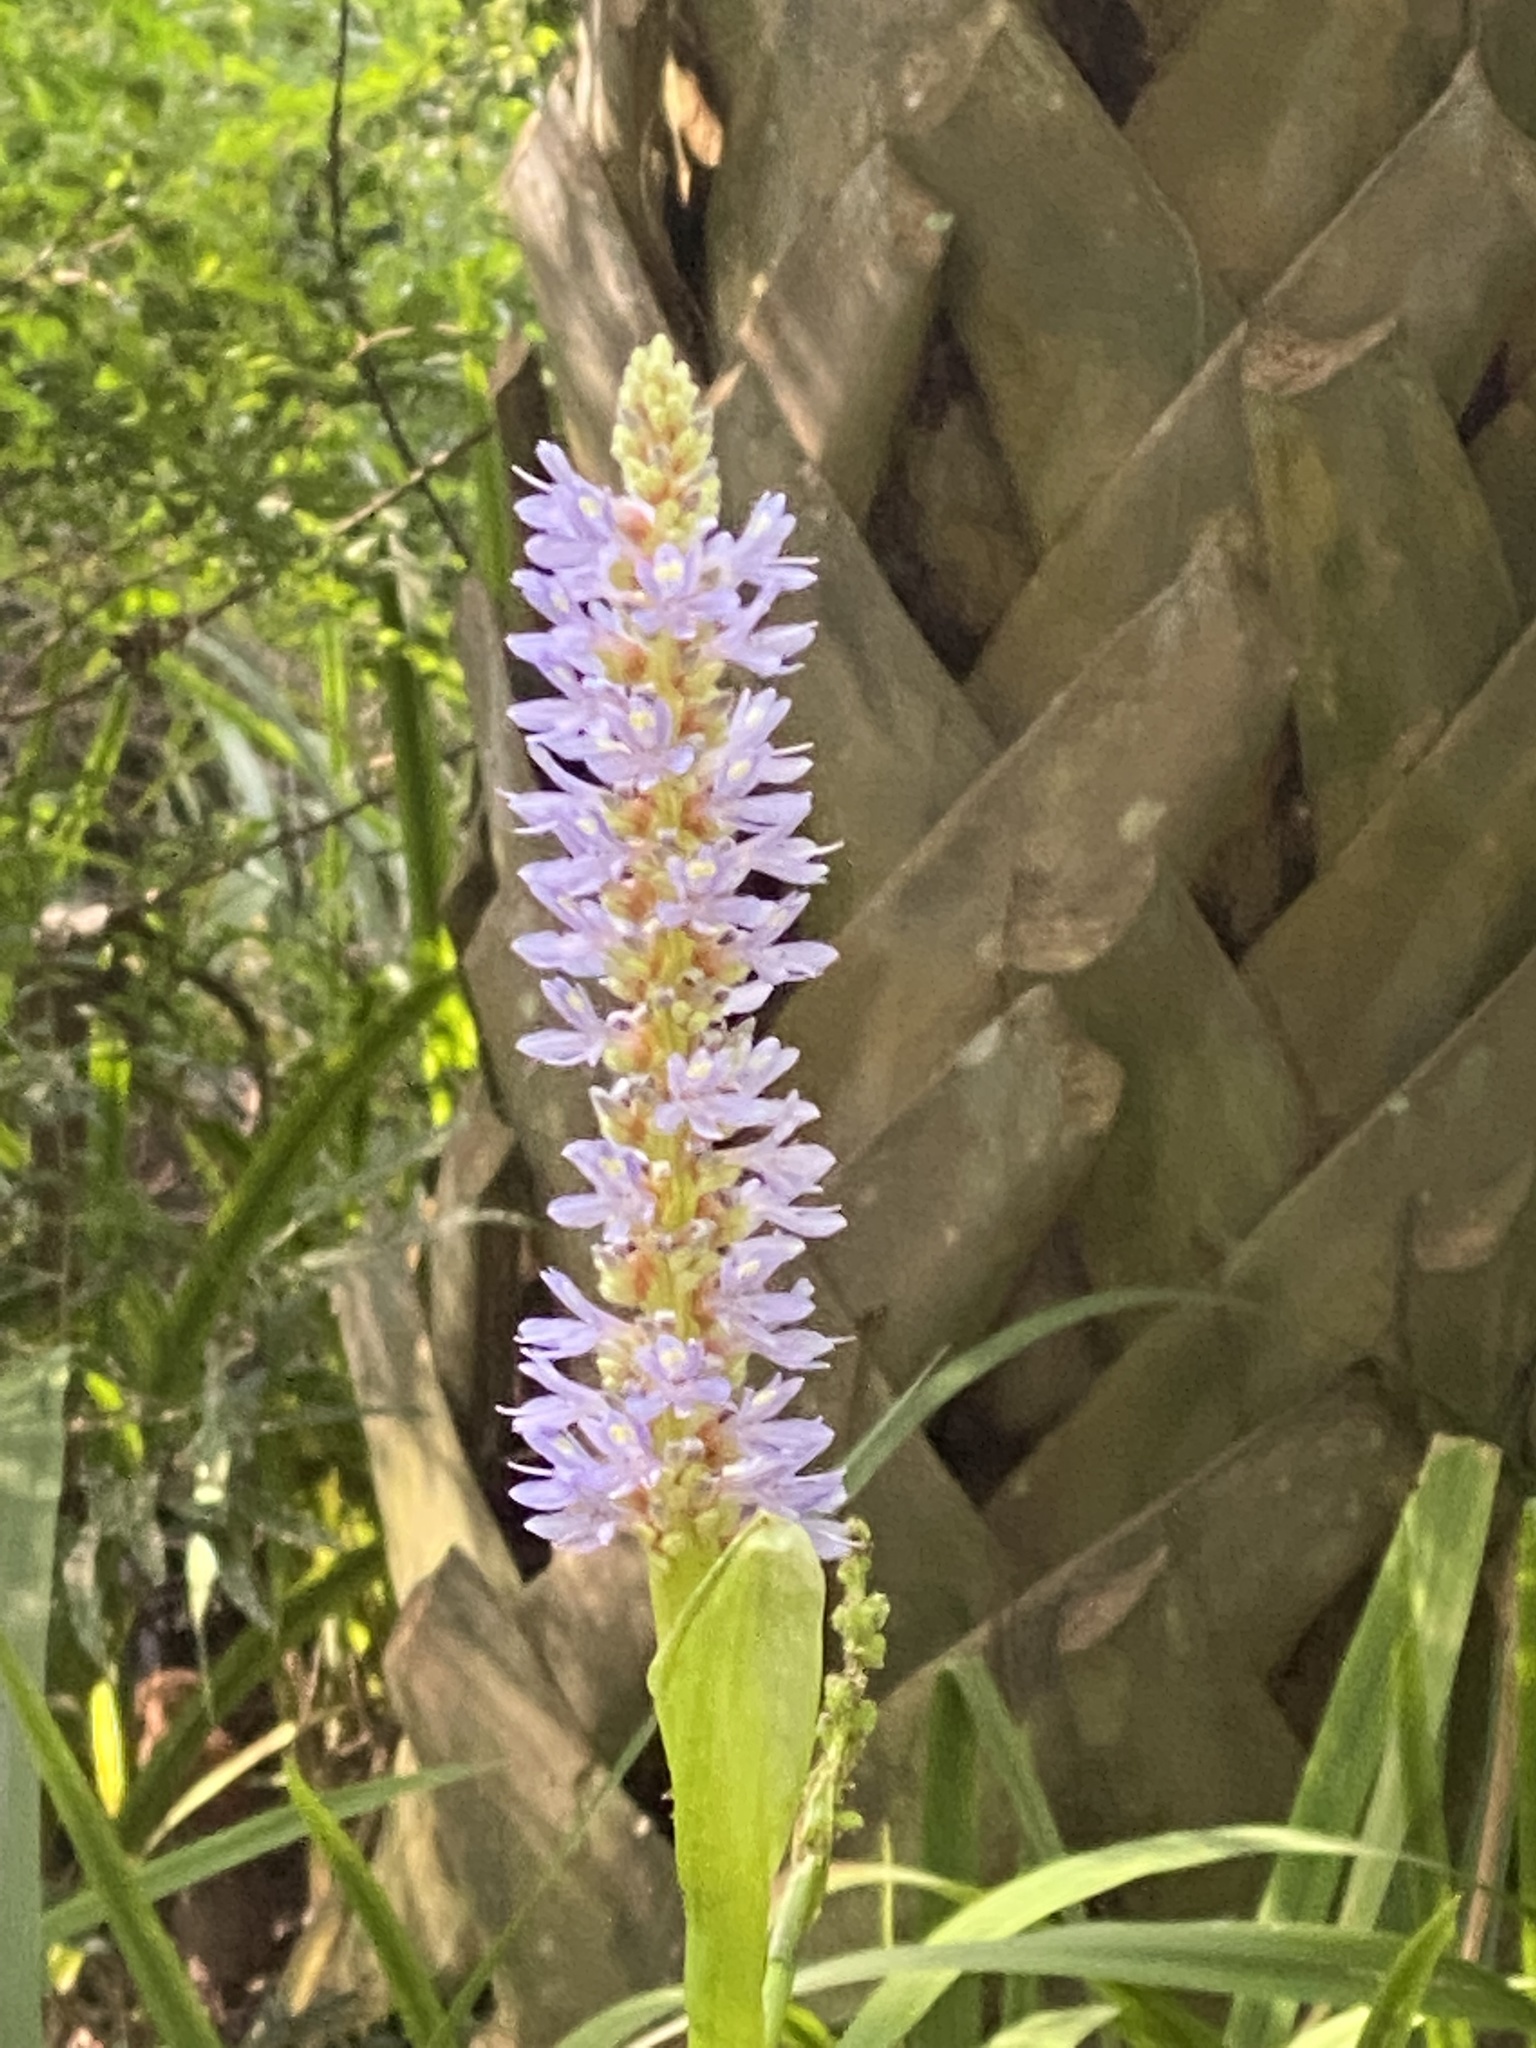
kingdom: Plantae
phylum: Tracheophyta
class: Liliopsida
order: Commelinales
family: Pontederiaceae
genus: Pontederia
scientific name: Pontederia cordata
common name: Pickerelweed
